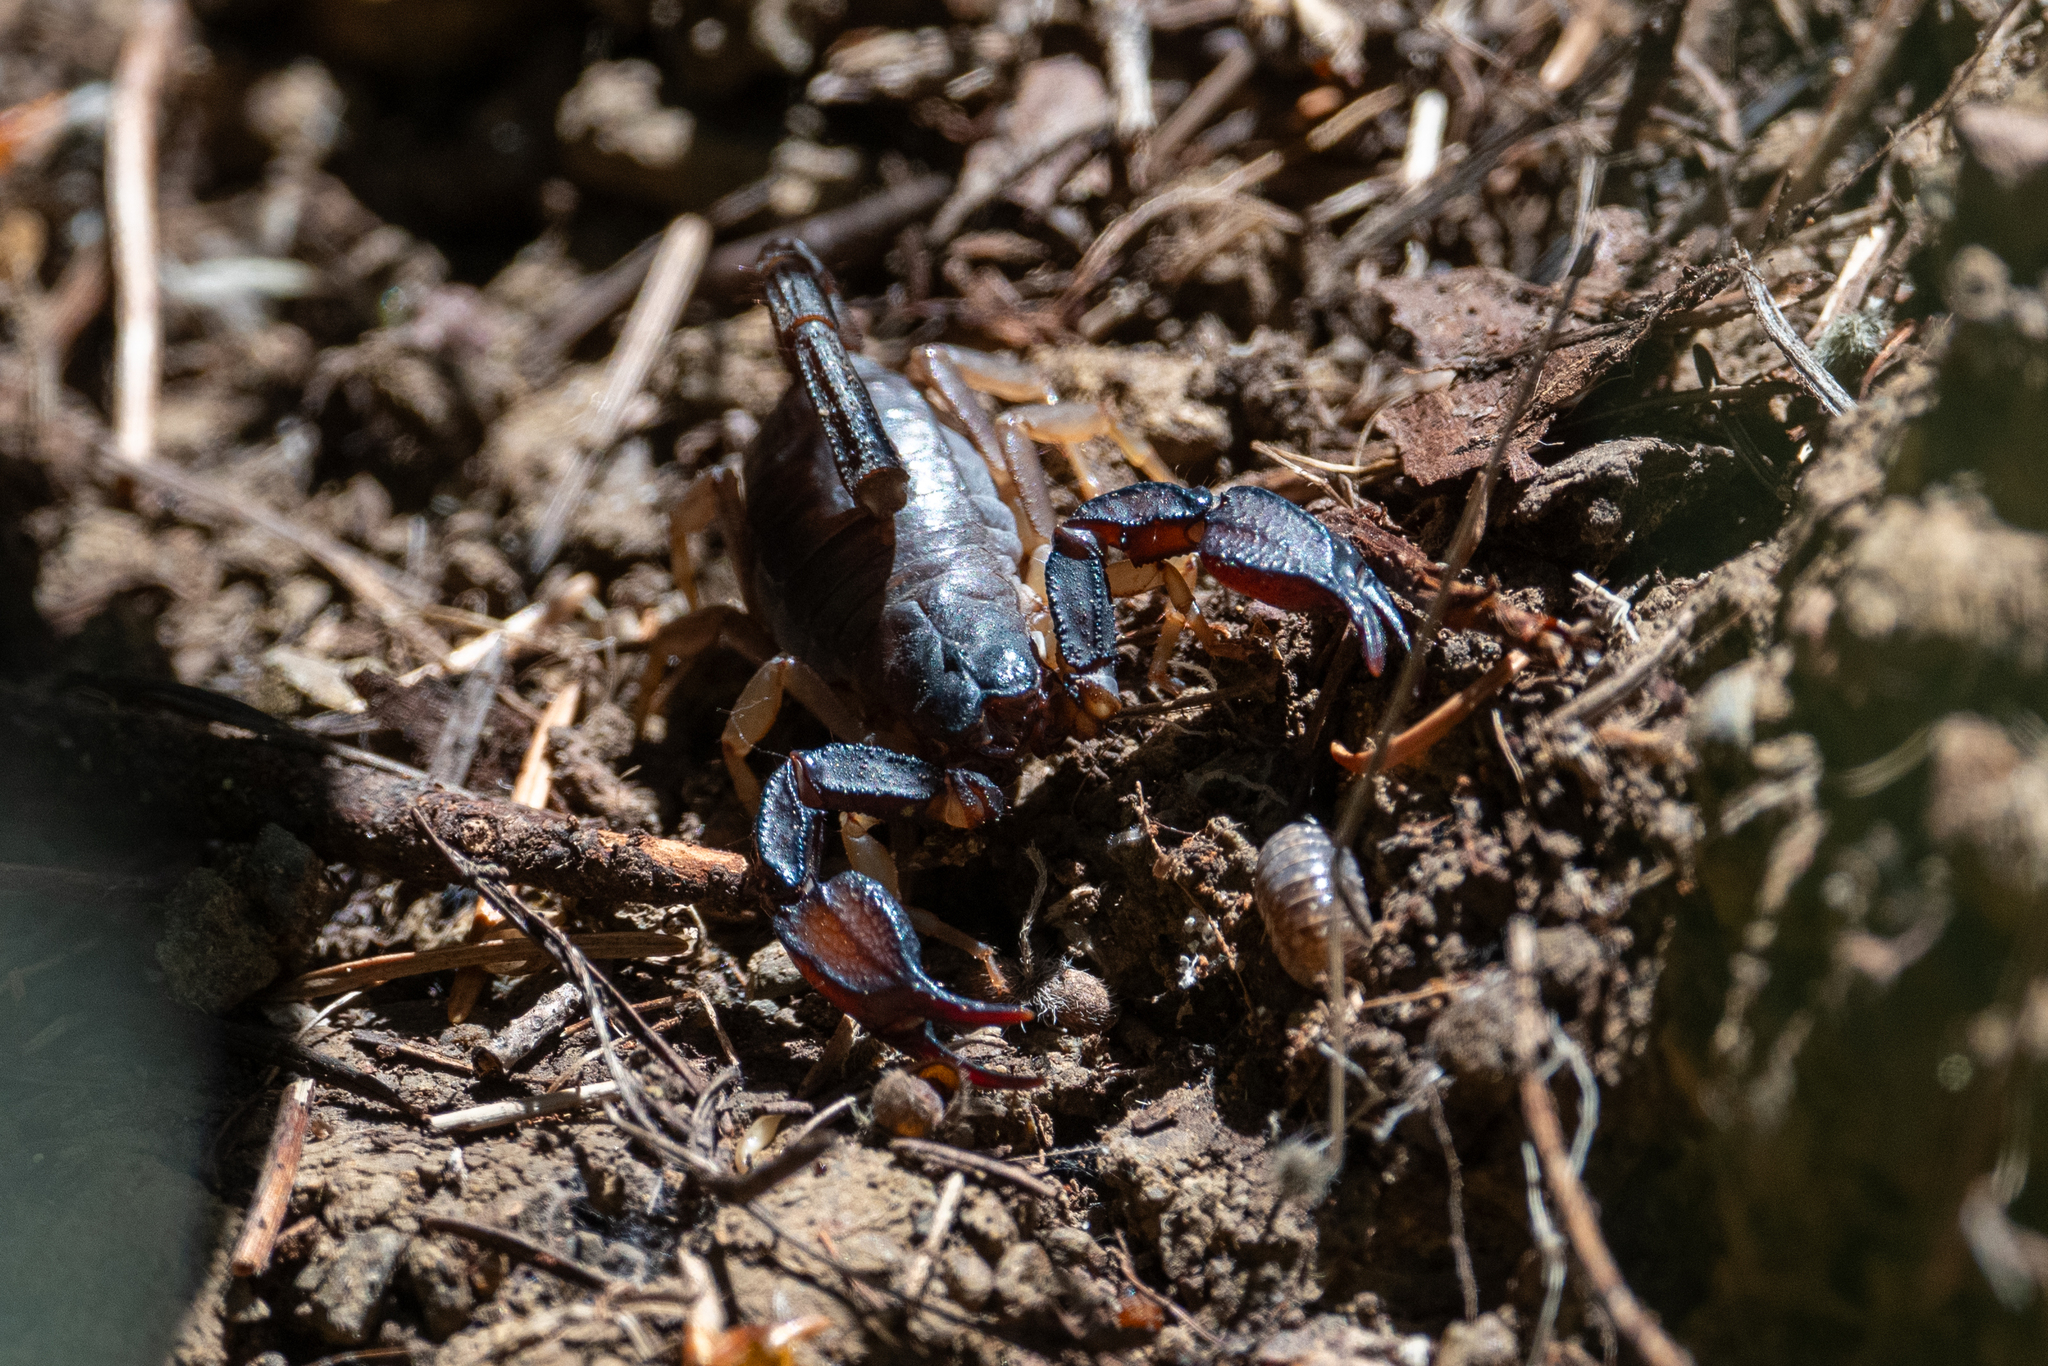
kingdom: Animalia
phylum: Arthropoda
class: Arachnida
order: Scorpiones
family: Chactidae
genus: Uroctonus
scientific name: Uroctonus mordax
